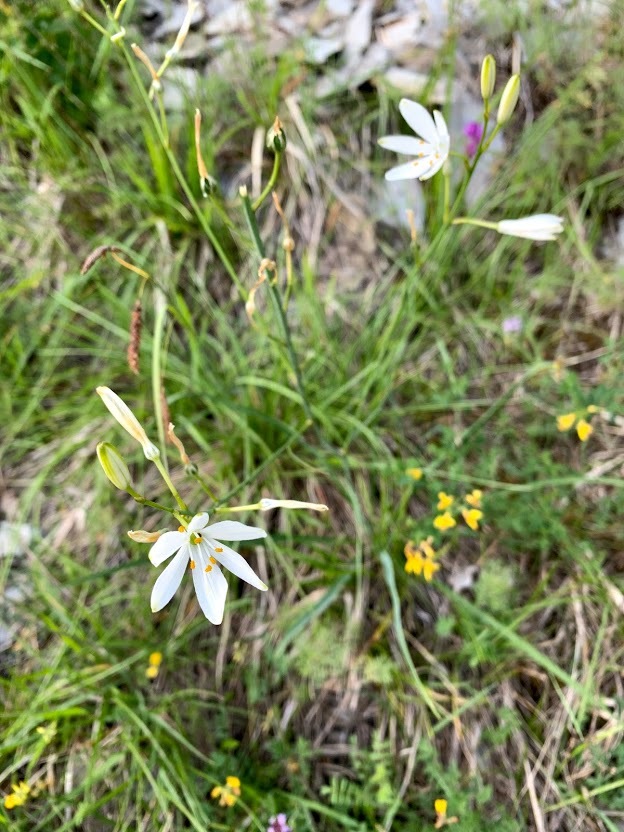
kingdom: Plantae
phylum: Tracheophyta
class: Liliopsida
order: Asparagales
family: Asparagaceae
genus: Anthericum
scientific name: Anthericum ramosum
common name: Branched st. bernard's-lily
